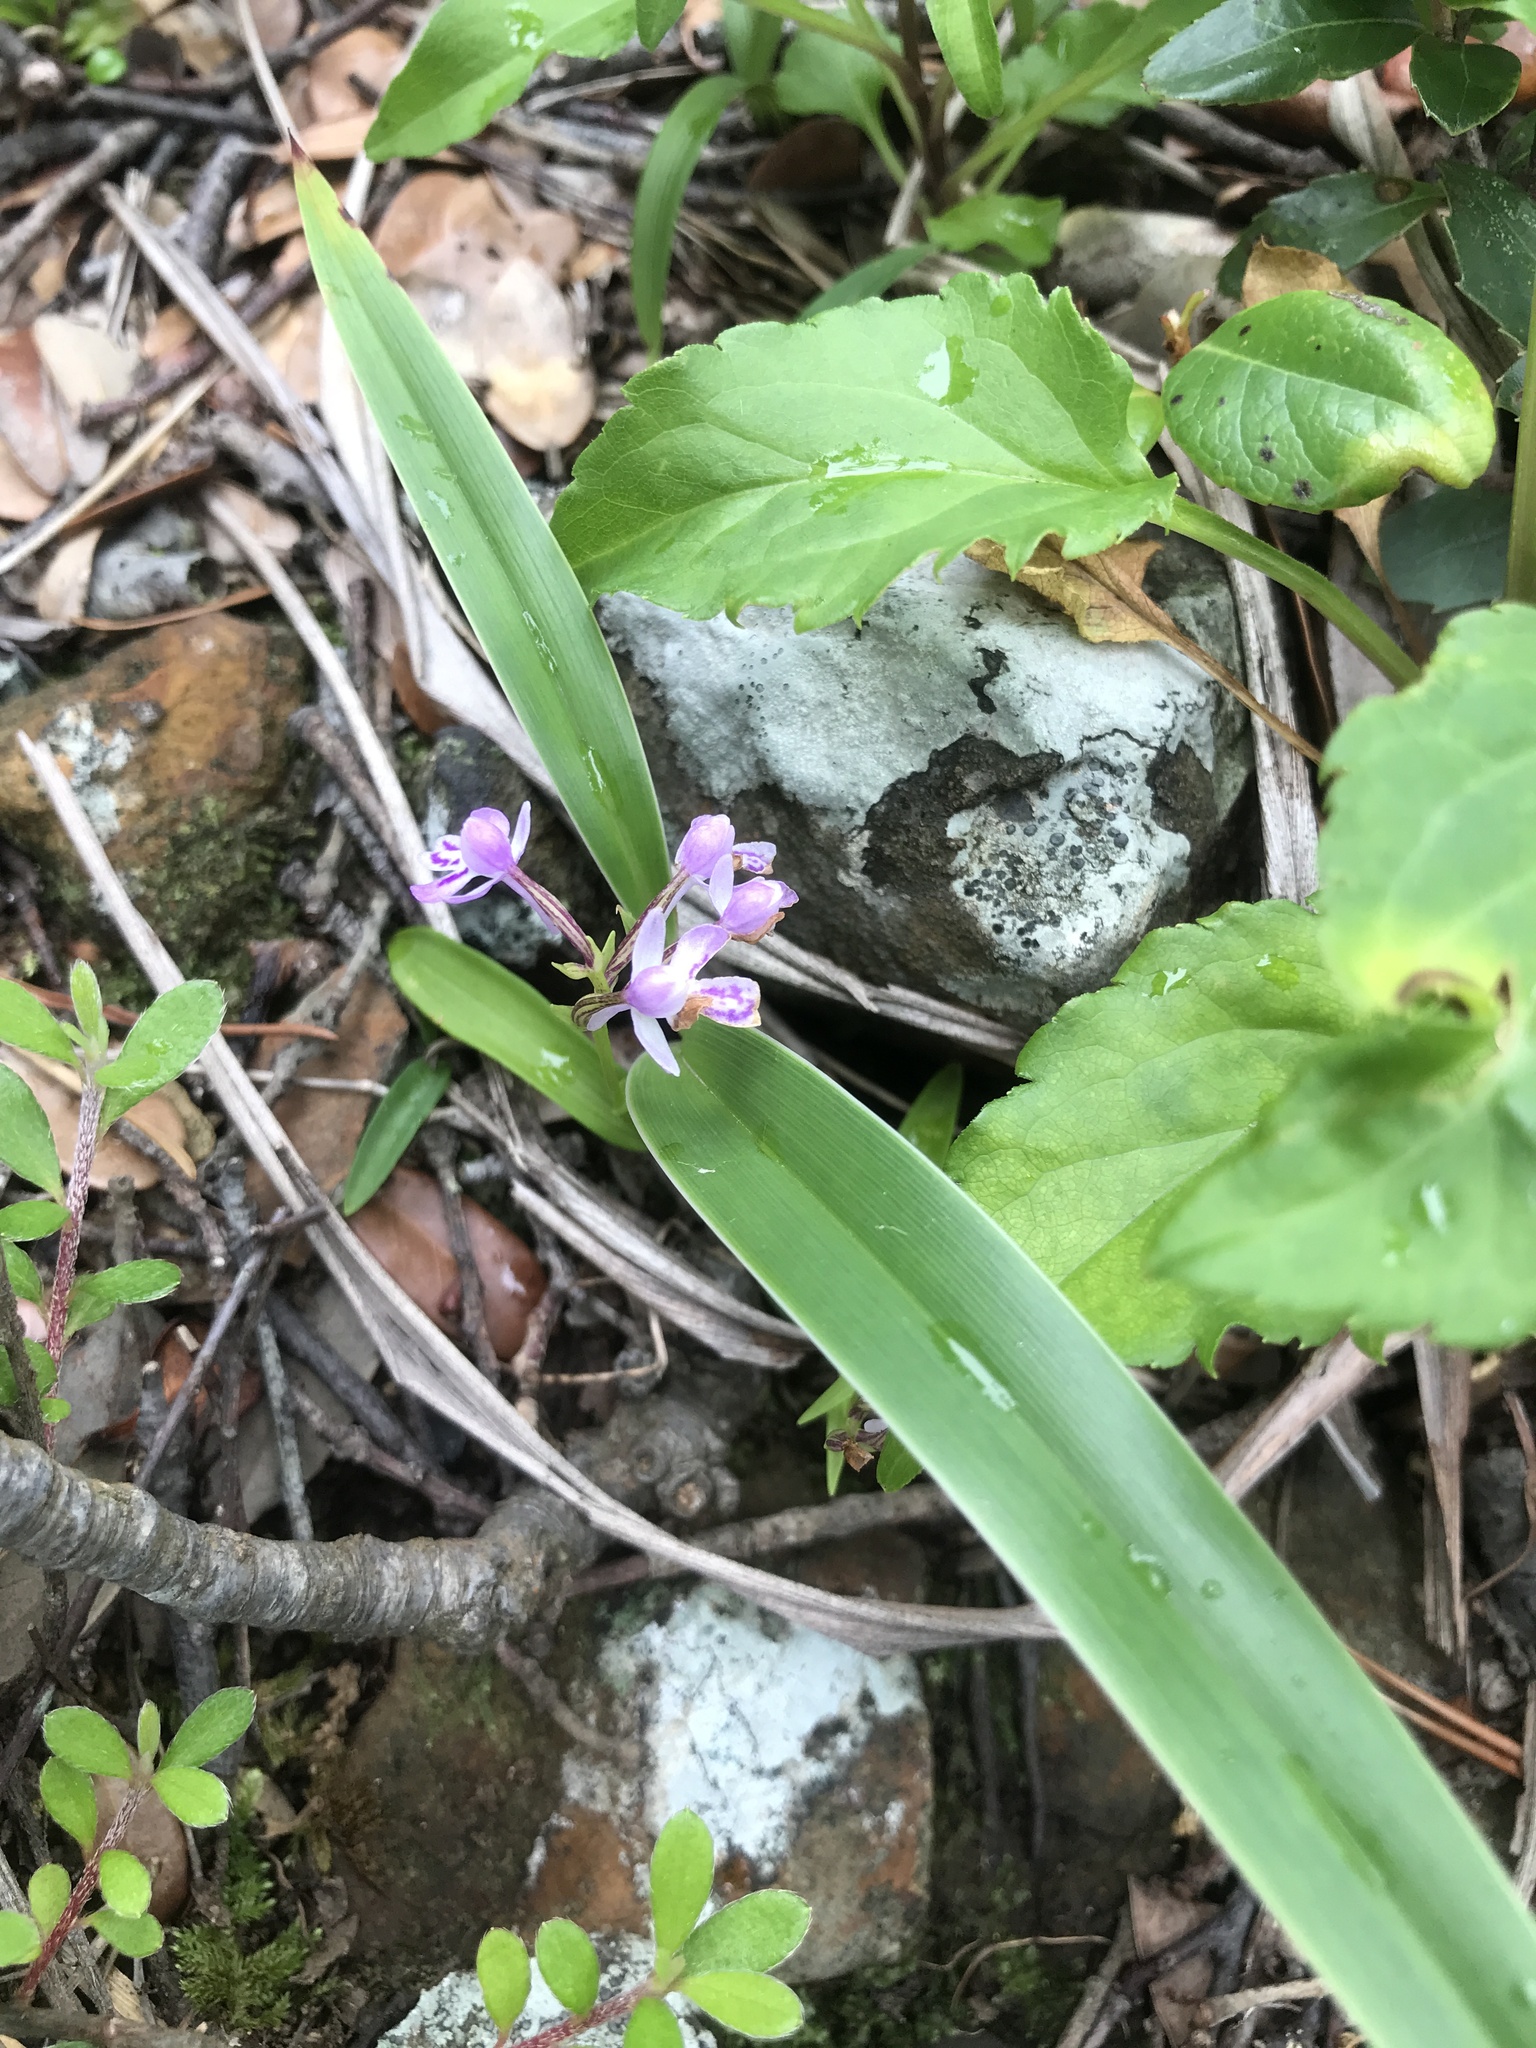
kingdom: Plantae
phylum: Tracheophyta
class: Liliopsida
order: Asparagales
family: Orchidaceae
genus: Hemipilia
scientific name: Hemipilia graminifolia
